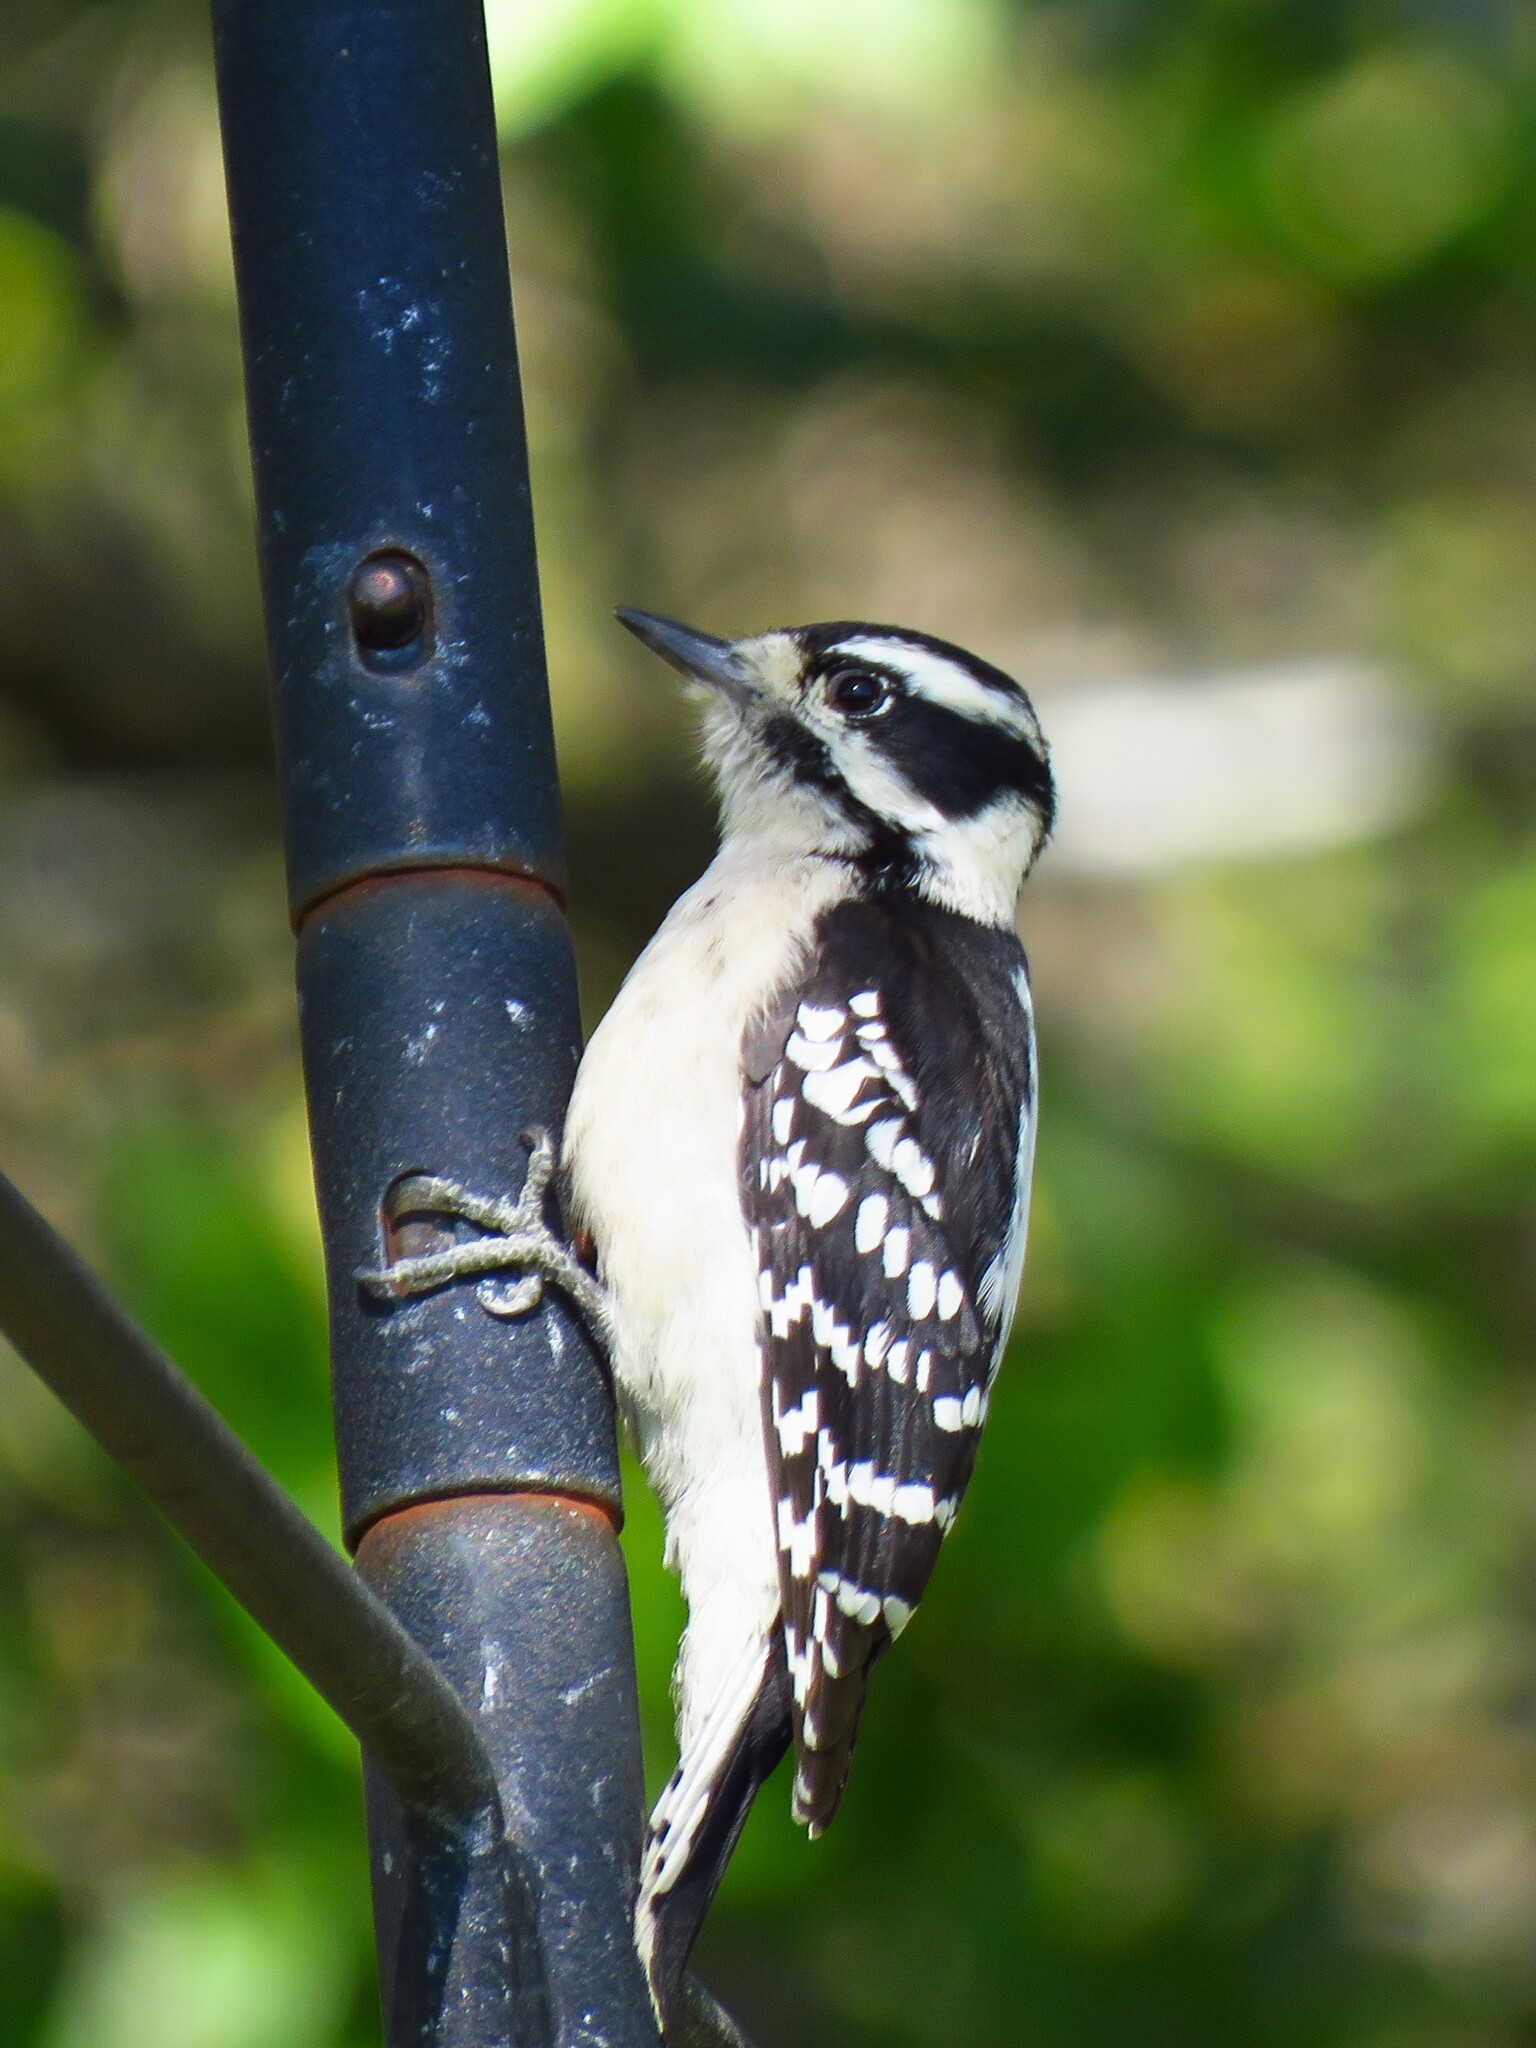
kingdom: Animalia
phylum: Chordata
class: Aves
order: Piciformes
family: Picidae
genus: Dryobates
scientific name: Dryobates pubescens
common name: Downy woodpecker
